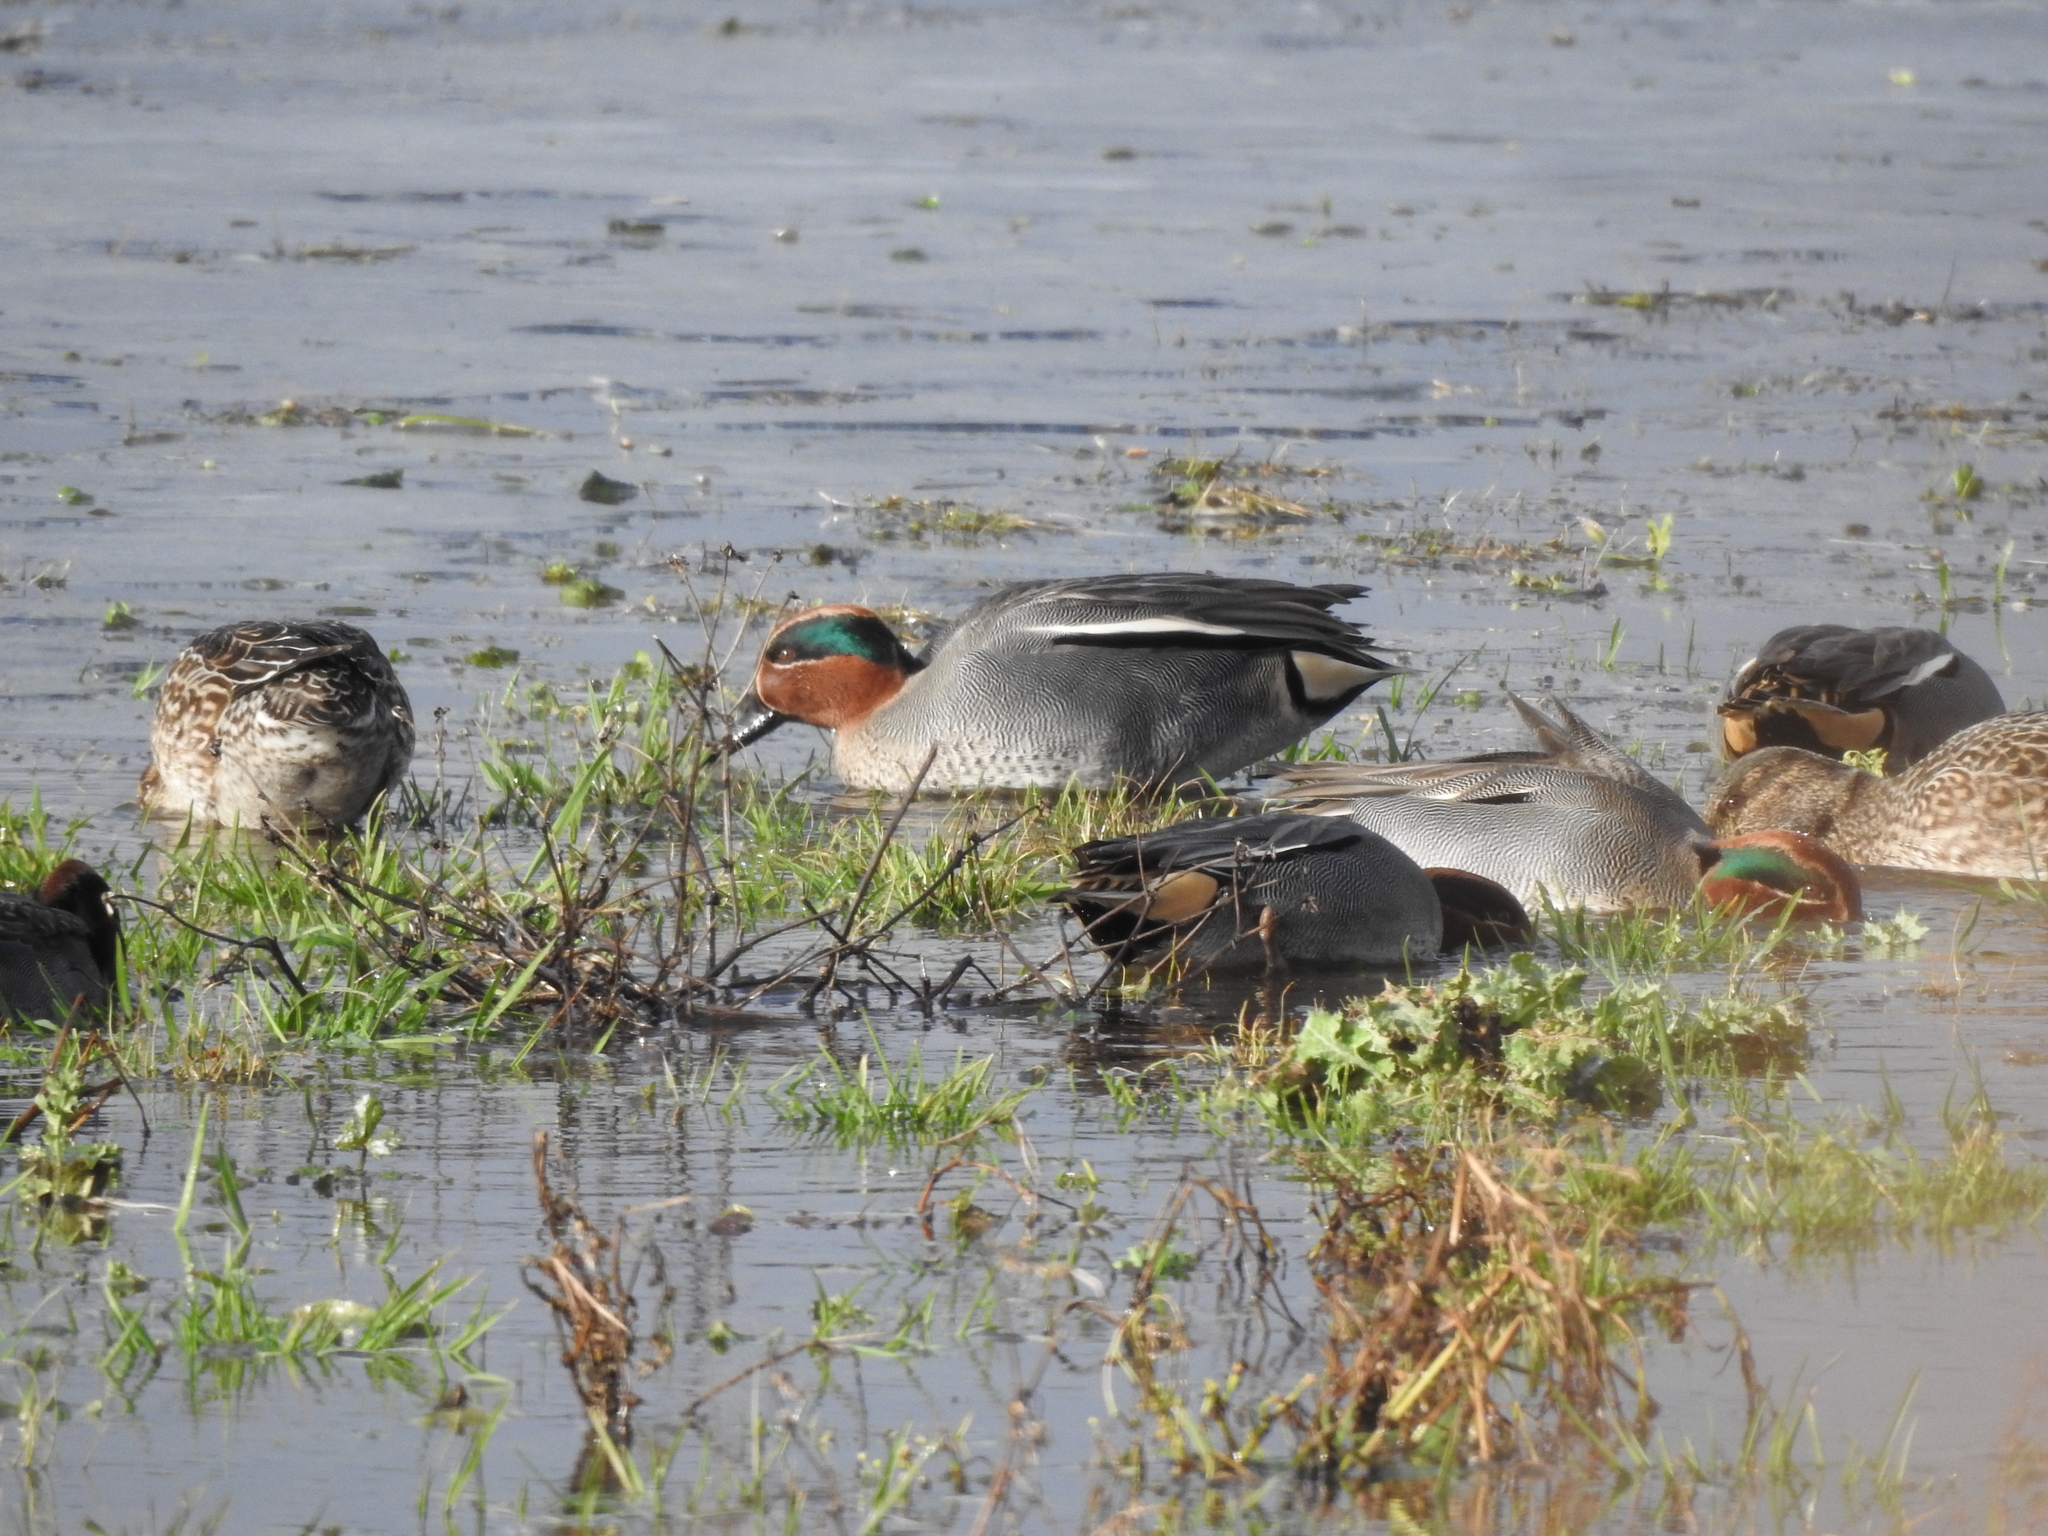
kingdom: Animalia
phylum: Chordata
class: Aves
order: Anseriformes
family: Anatidae
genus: Anas
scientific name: Anas crecca
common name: Eurasian teal
